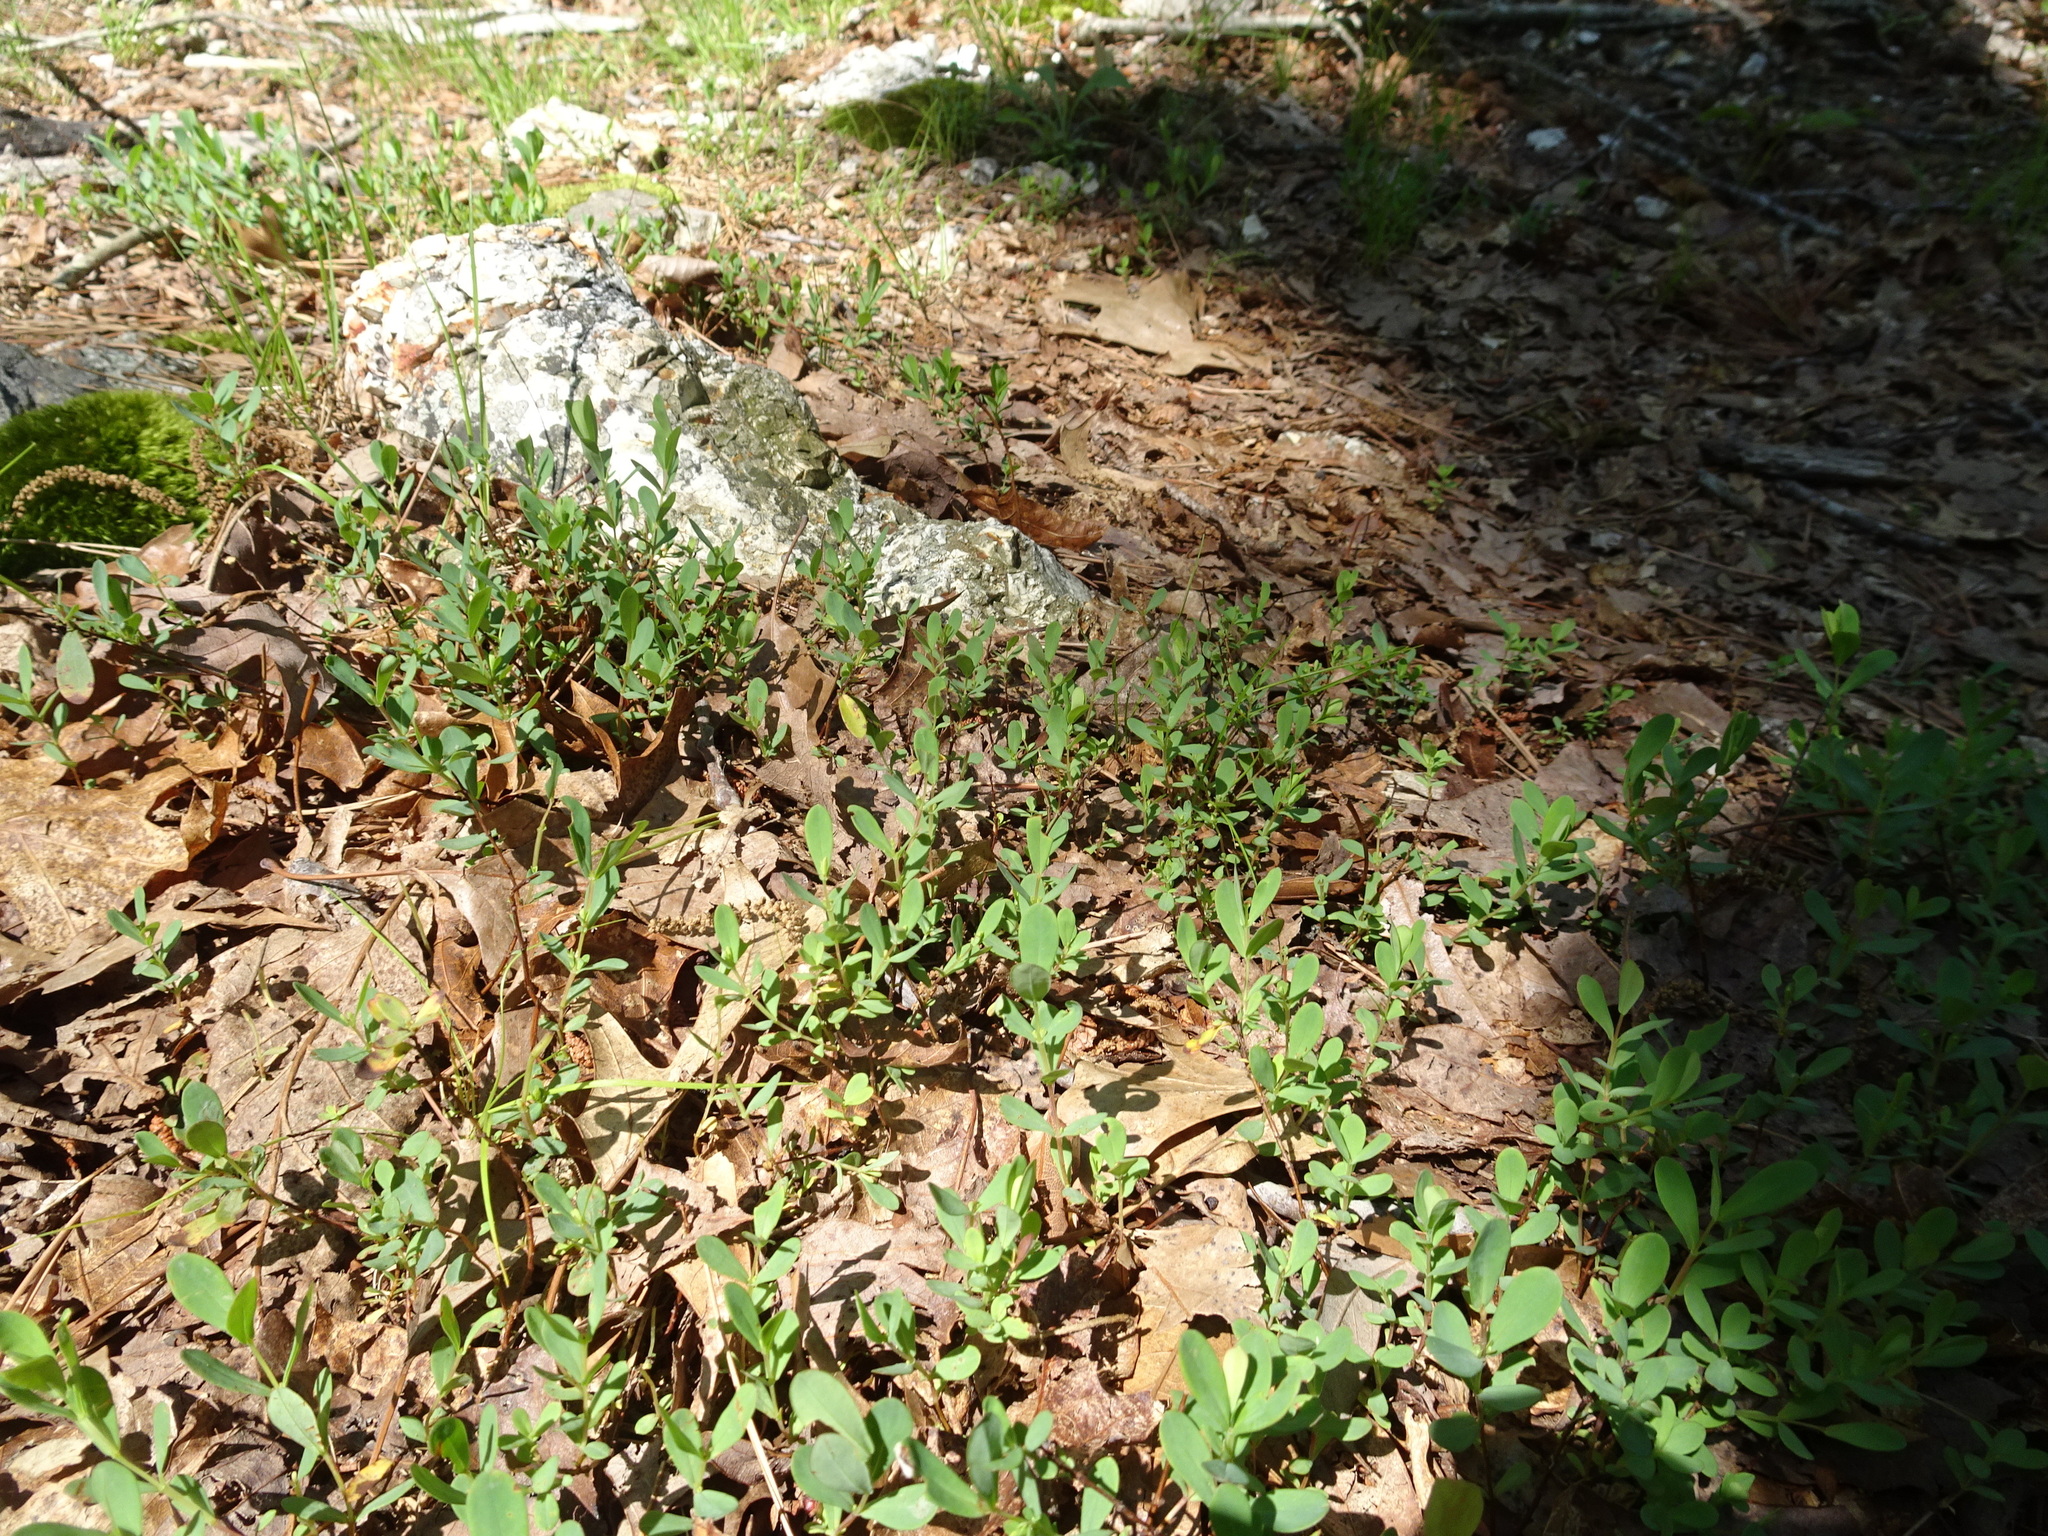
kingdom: Plantae
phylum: Tracheophyta
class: Magnoliopsida
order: Malpighiales
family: Hypericaceae
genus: Hypericum
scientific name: Hypericum hypericoides
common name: St. andrew's cross
